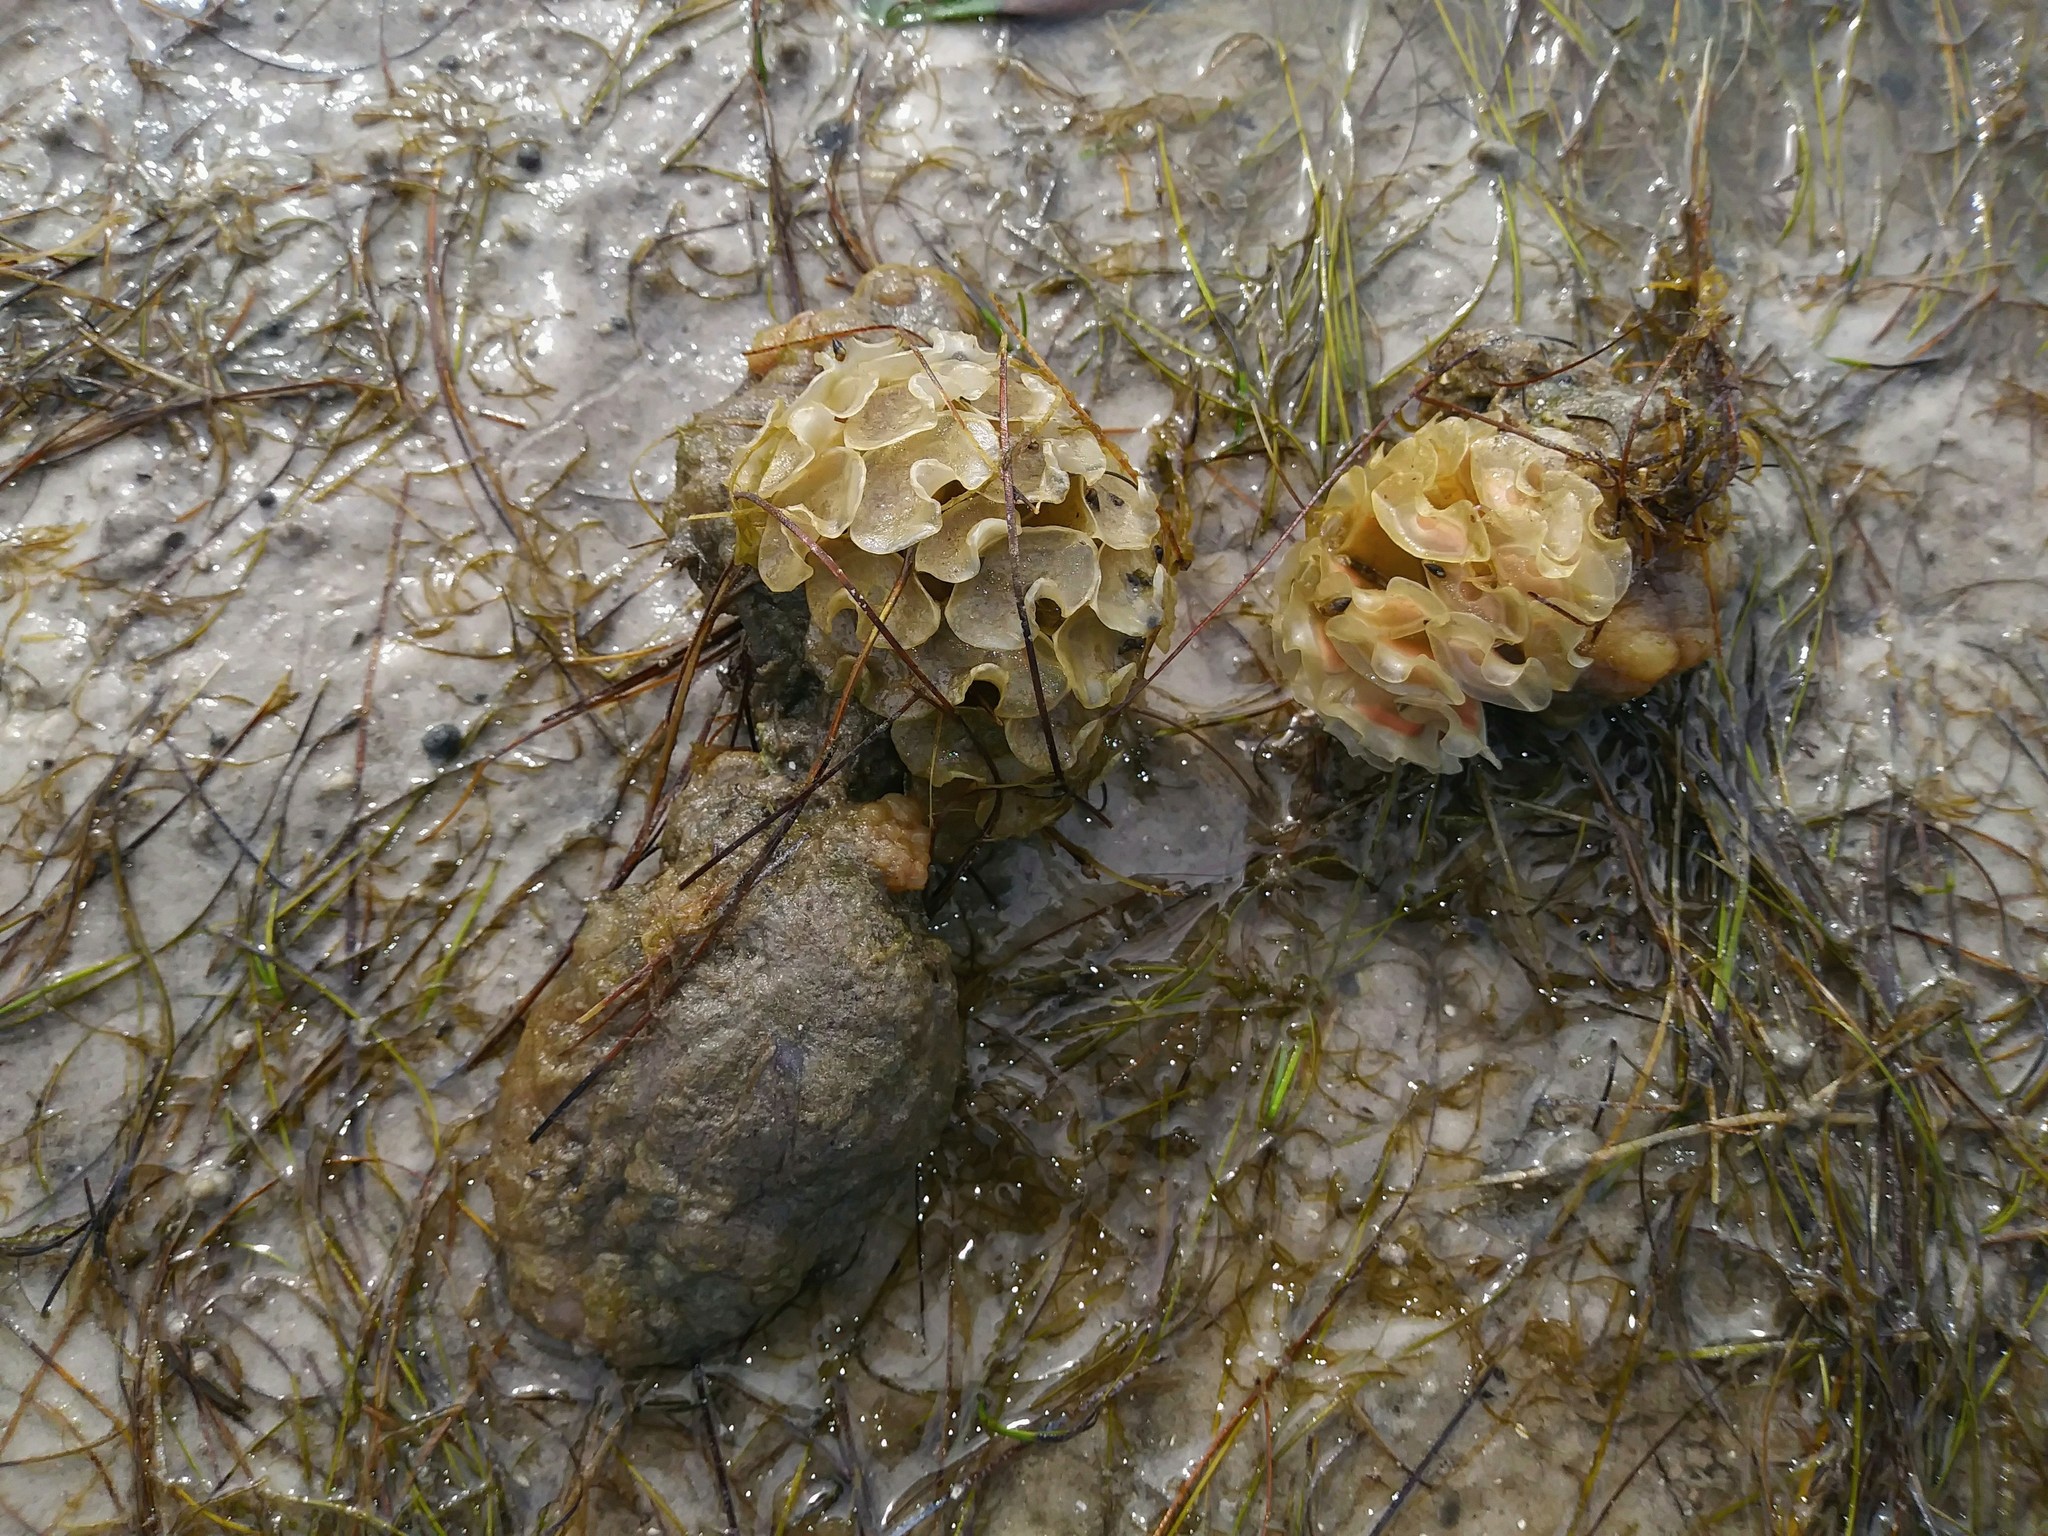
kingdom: Animalia
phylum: Mollusca
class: Gastropoda
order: Neogastropoda
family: Fasciolariidae
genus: Cinctura
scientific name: Cinctura hunteria
